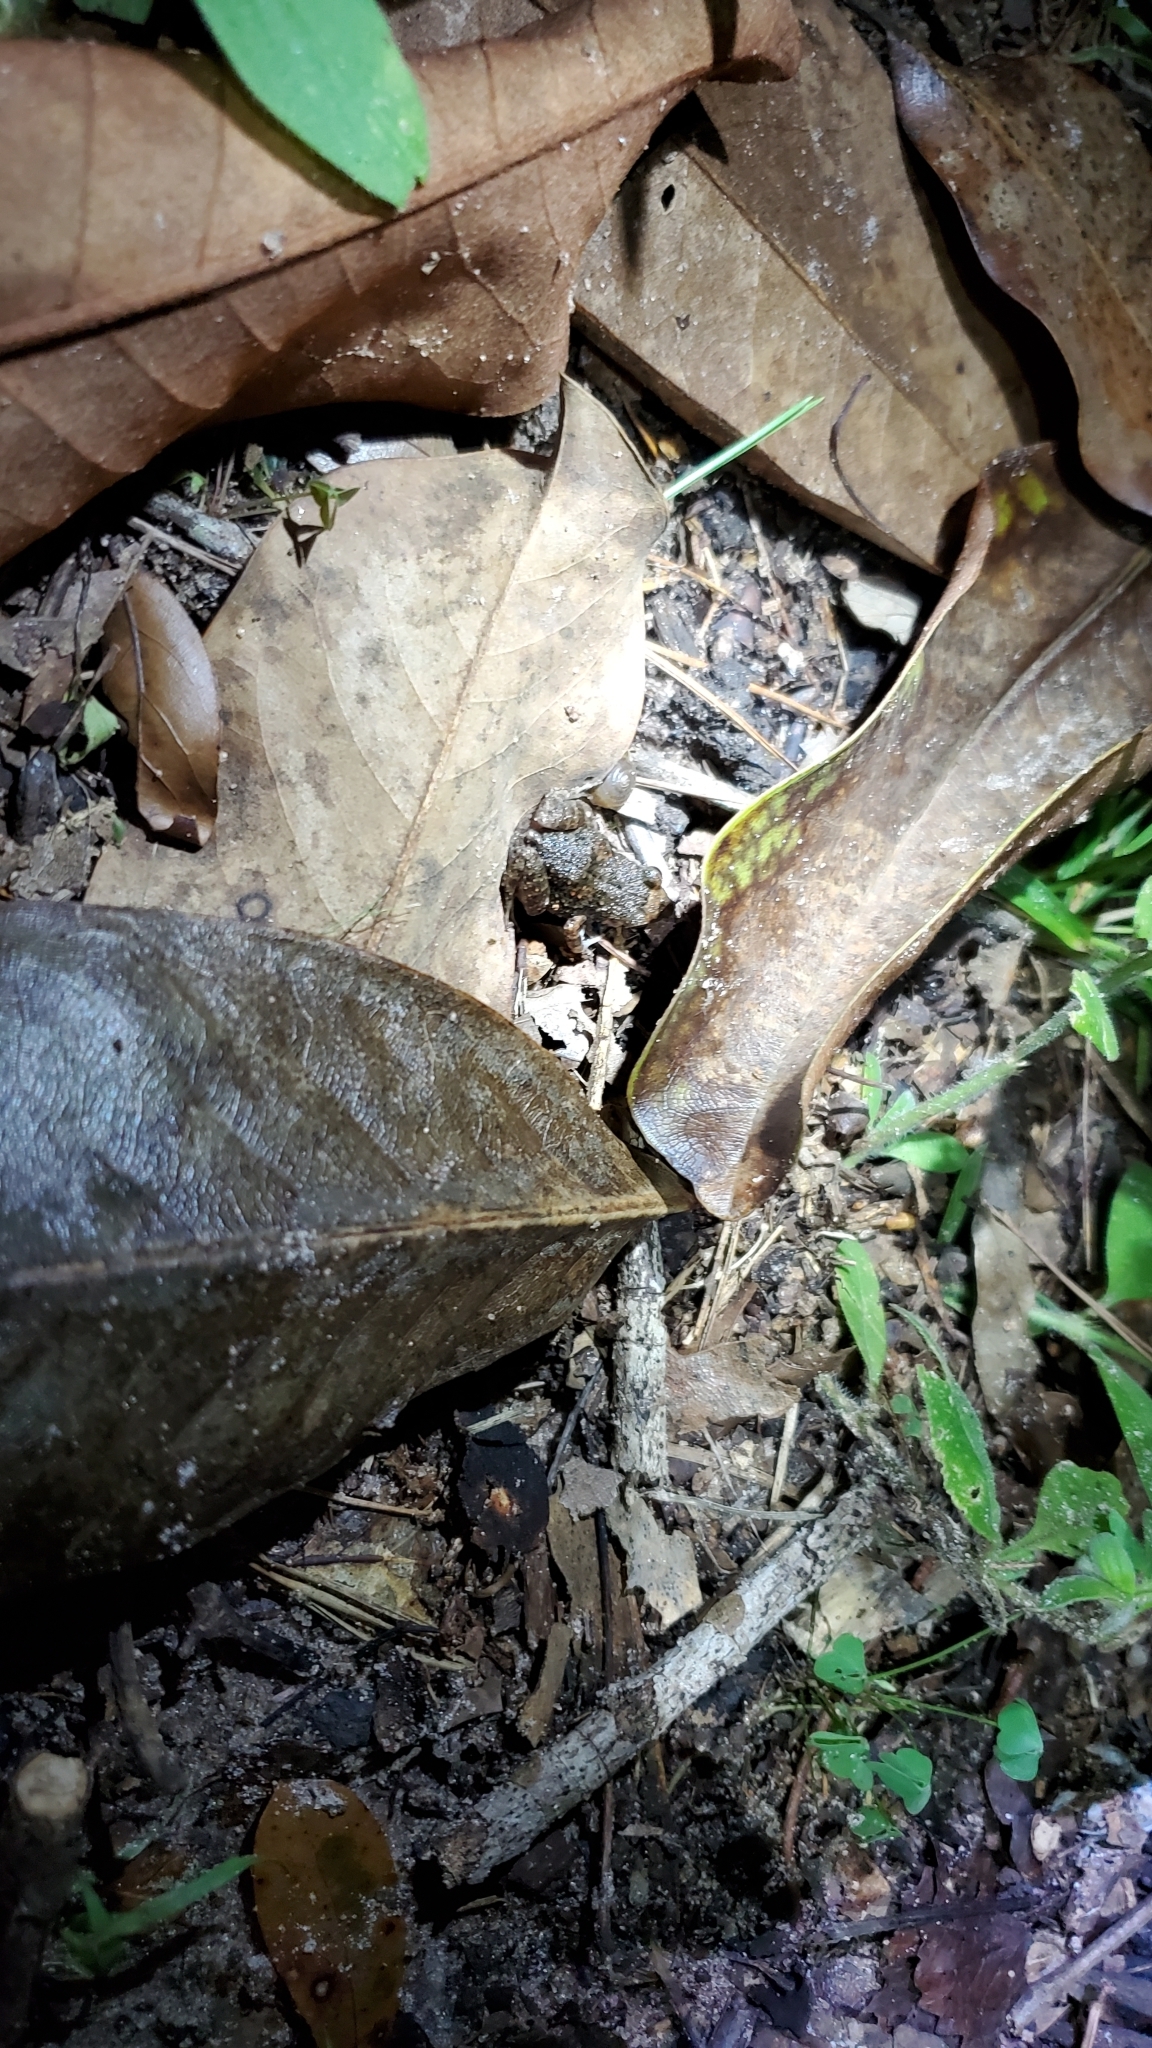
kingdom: Animalia
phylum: Chordata
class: Amphibia
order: Anura
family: Eleutherodactylidae
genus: Eleutherodactylus
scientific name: Eleutherodactylus planirostris
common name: Greenhouse frog
